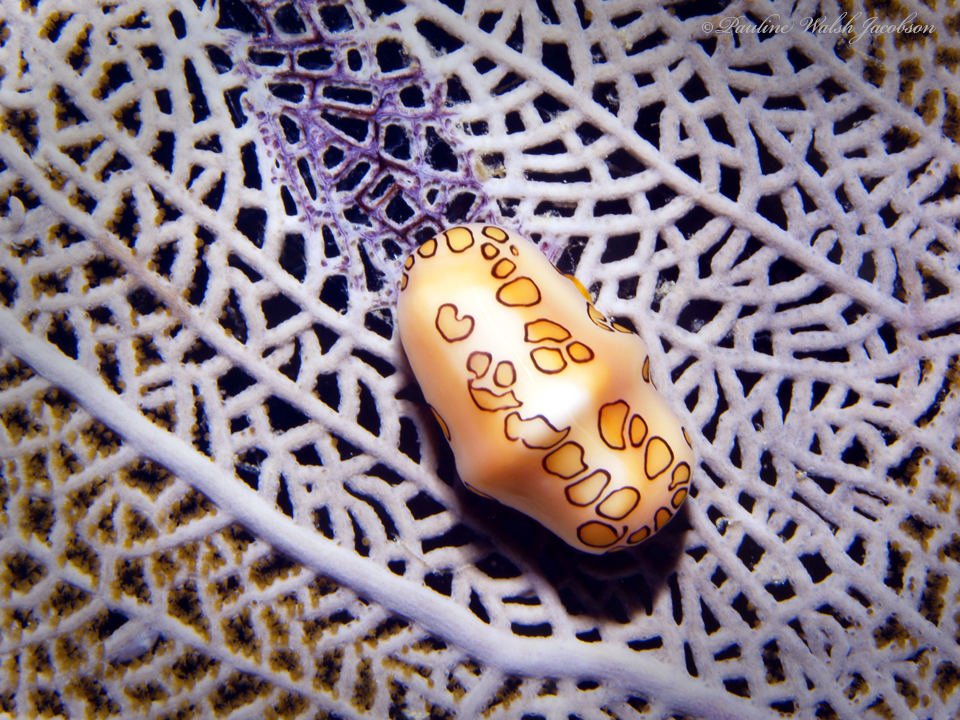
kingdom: Animalia
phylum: Mollusca
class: Gastropoda
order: Littorinimorpha
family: Ovulidae
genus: Cyphoma
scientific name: Cyphoma gibbosum
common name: Flamingo tongue
